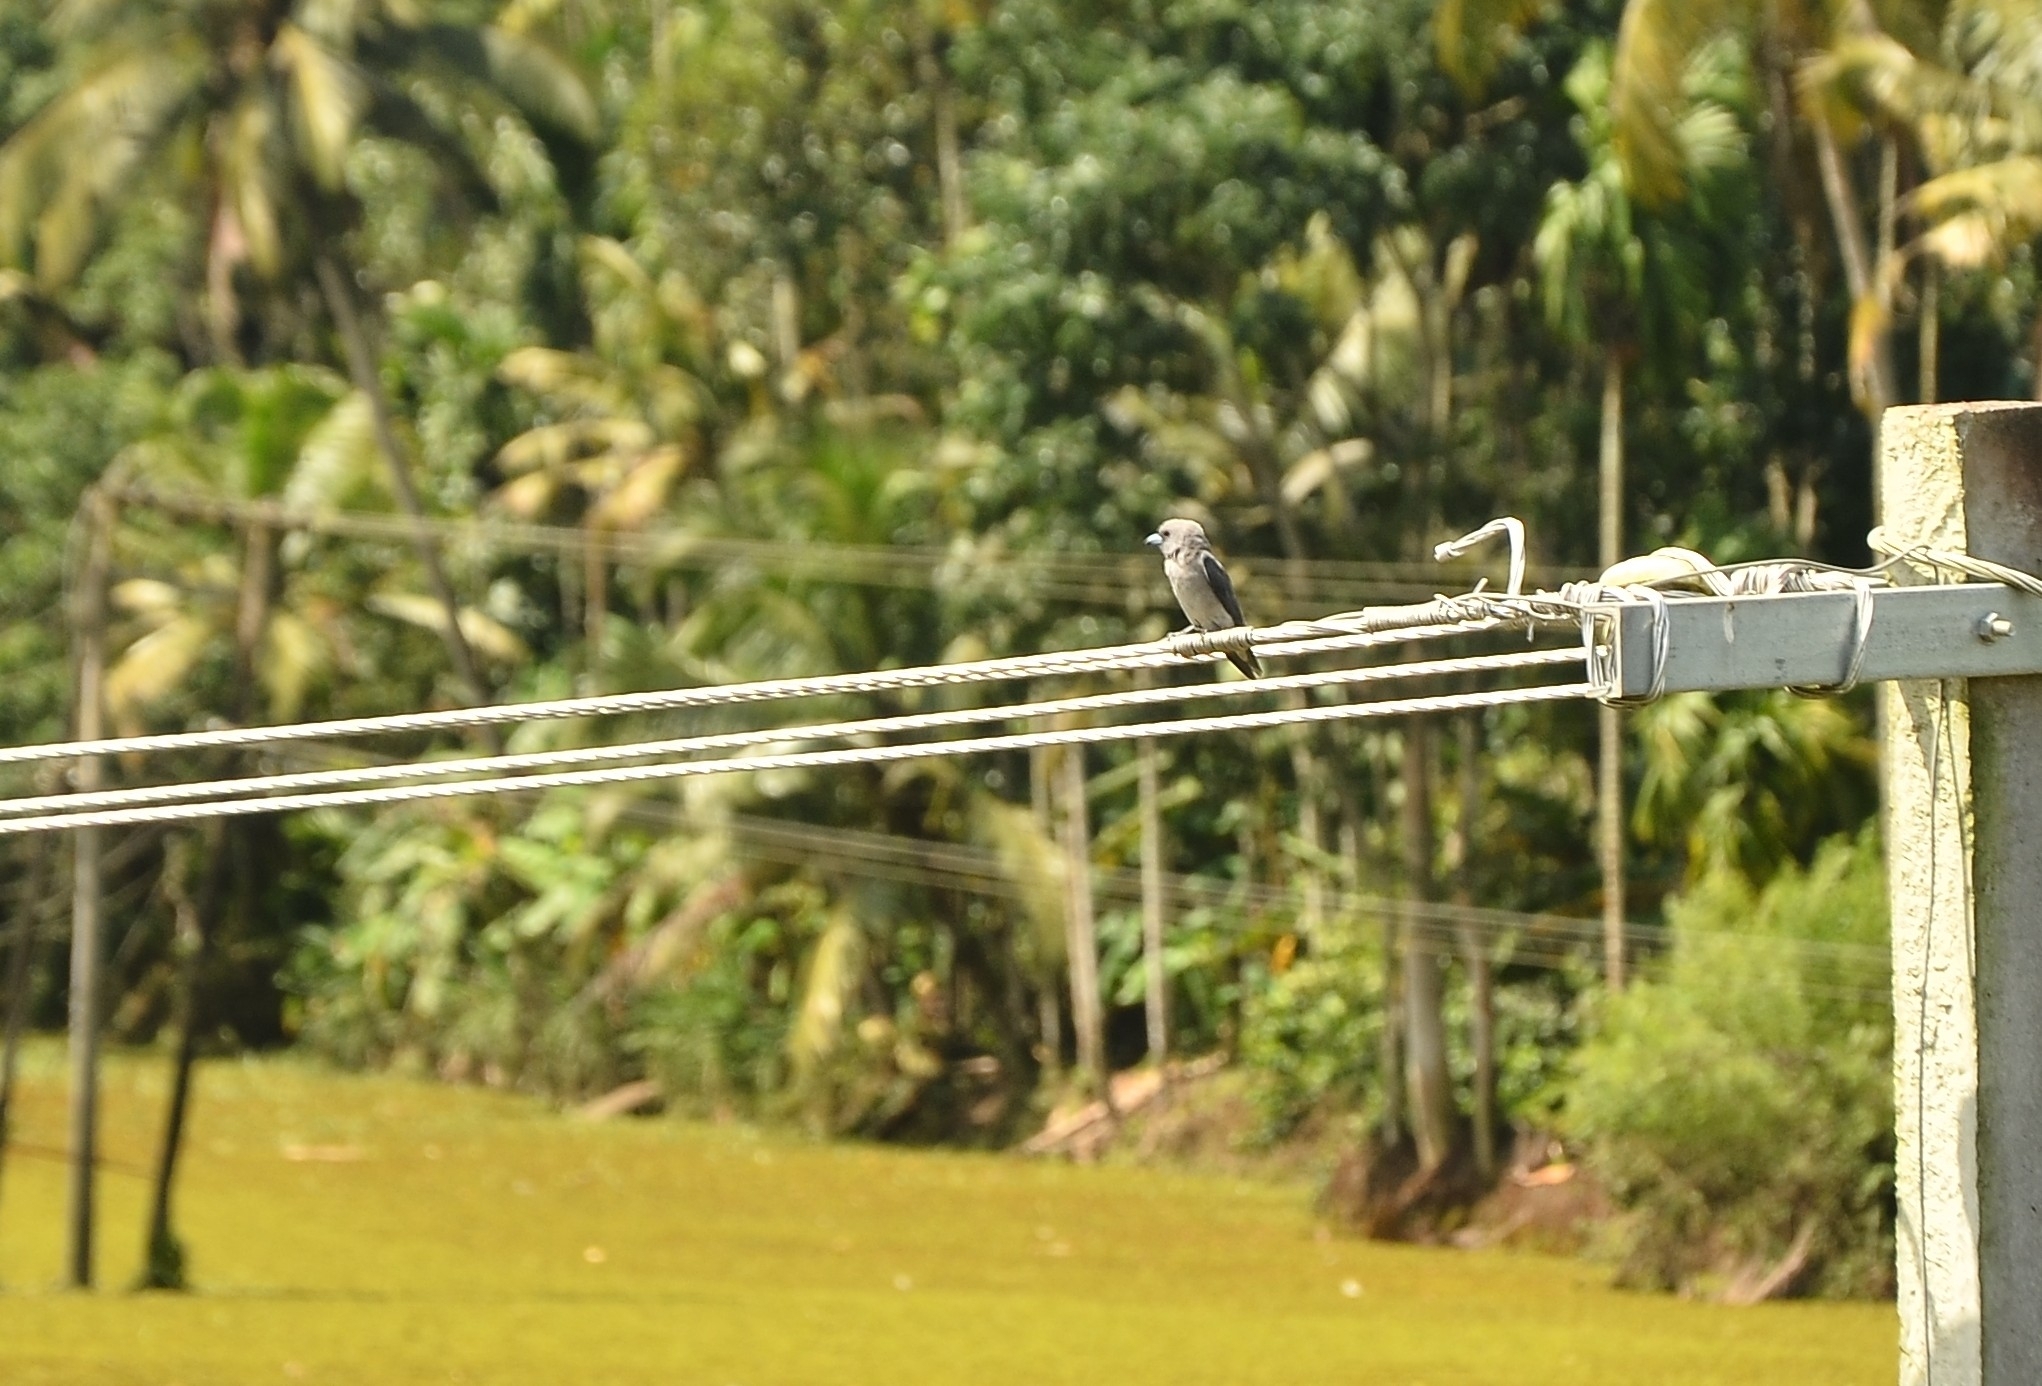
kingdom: Animalia
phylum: Chordata
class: Aves
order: Passeriformes
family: Artamidae
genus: Artamus
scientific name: Artamus fuscus
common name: Ashy woodswallow
